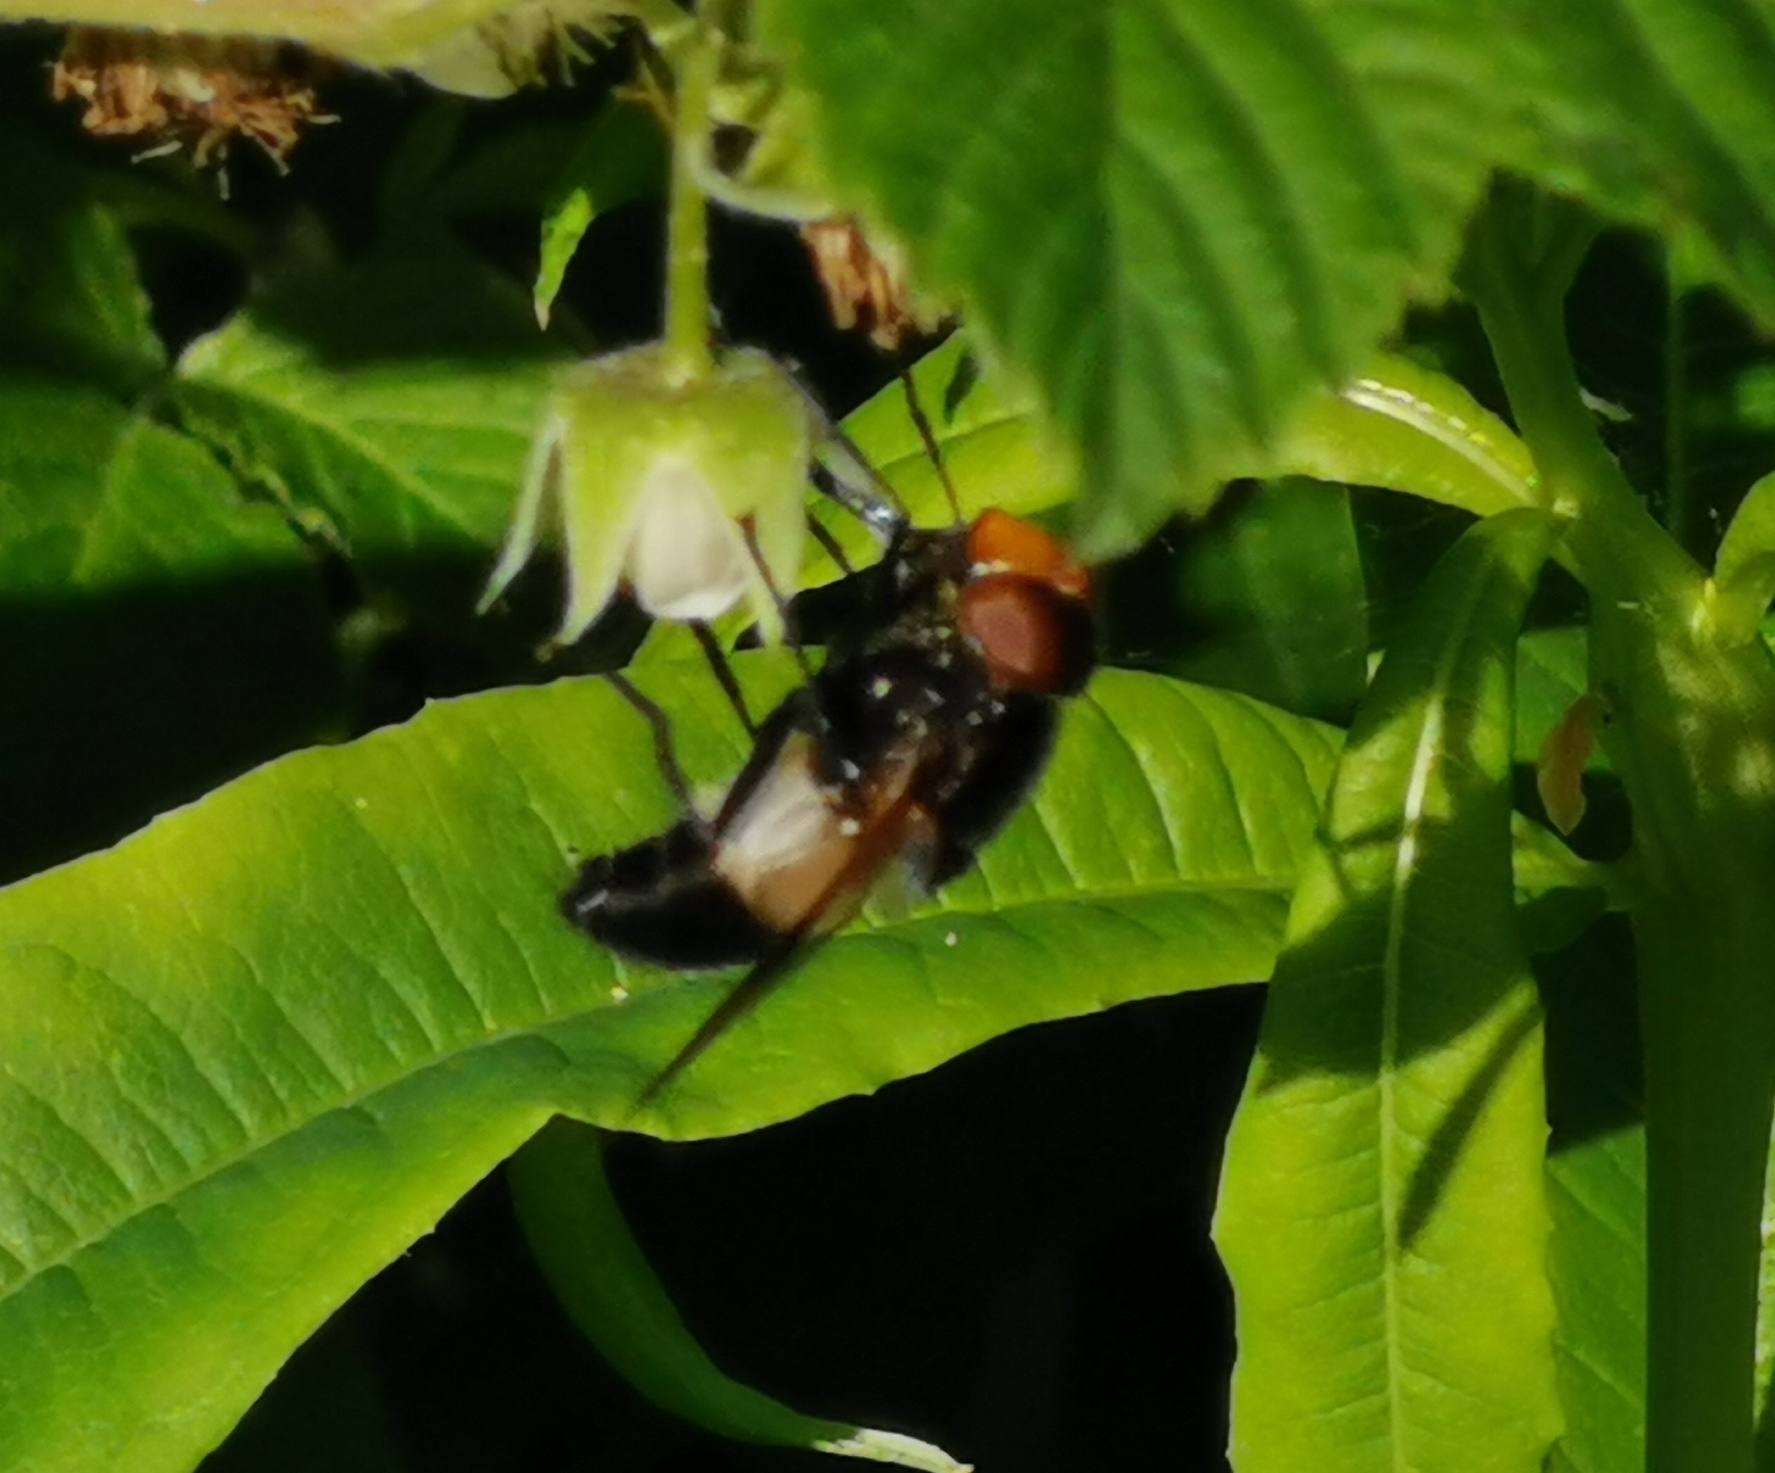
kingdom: Animalia
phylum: Arthropoda
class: Insecta
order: Diptera
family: Syrphidae
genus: Volucella
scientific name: Volucella pellucens
